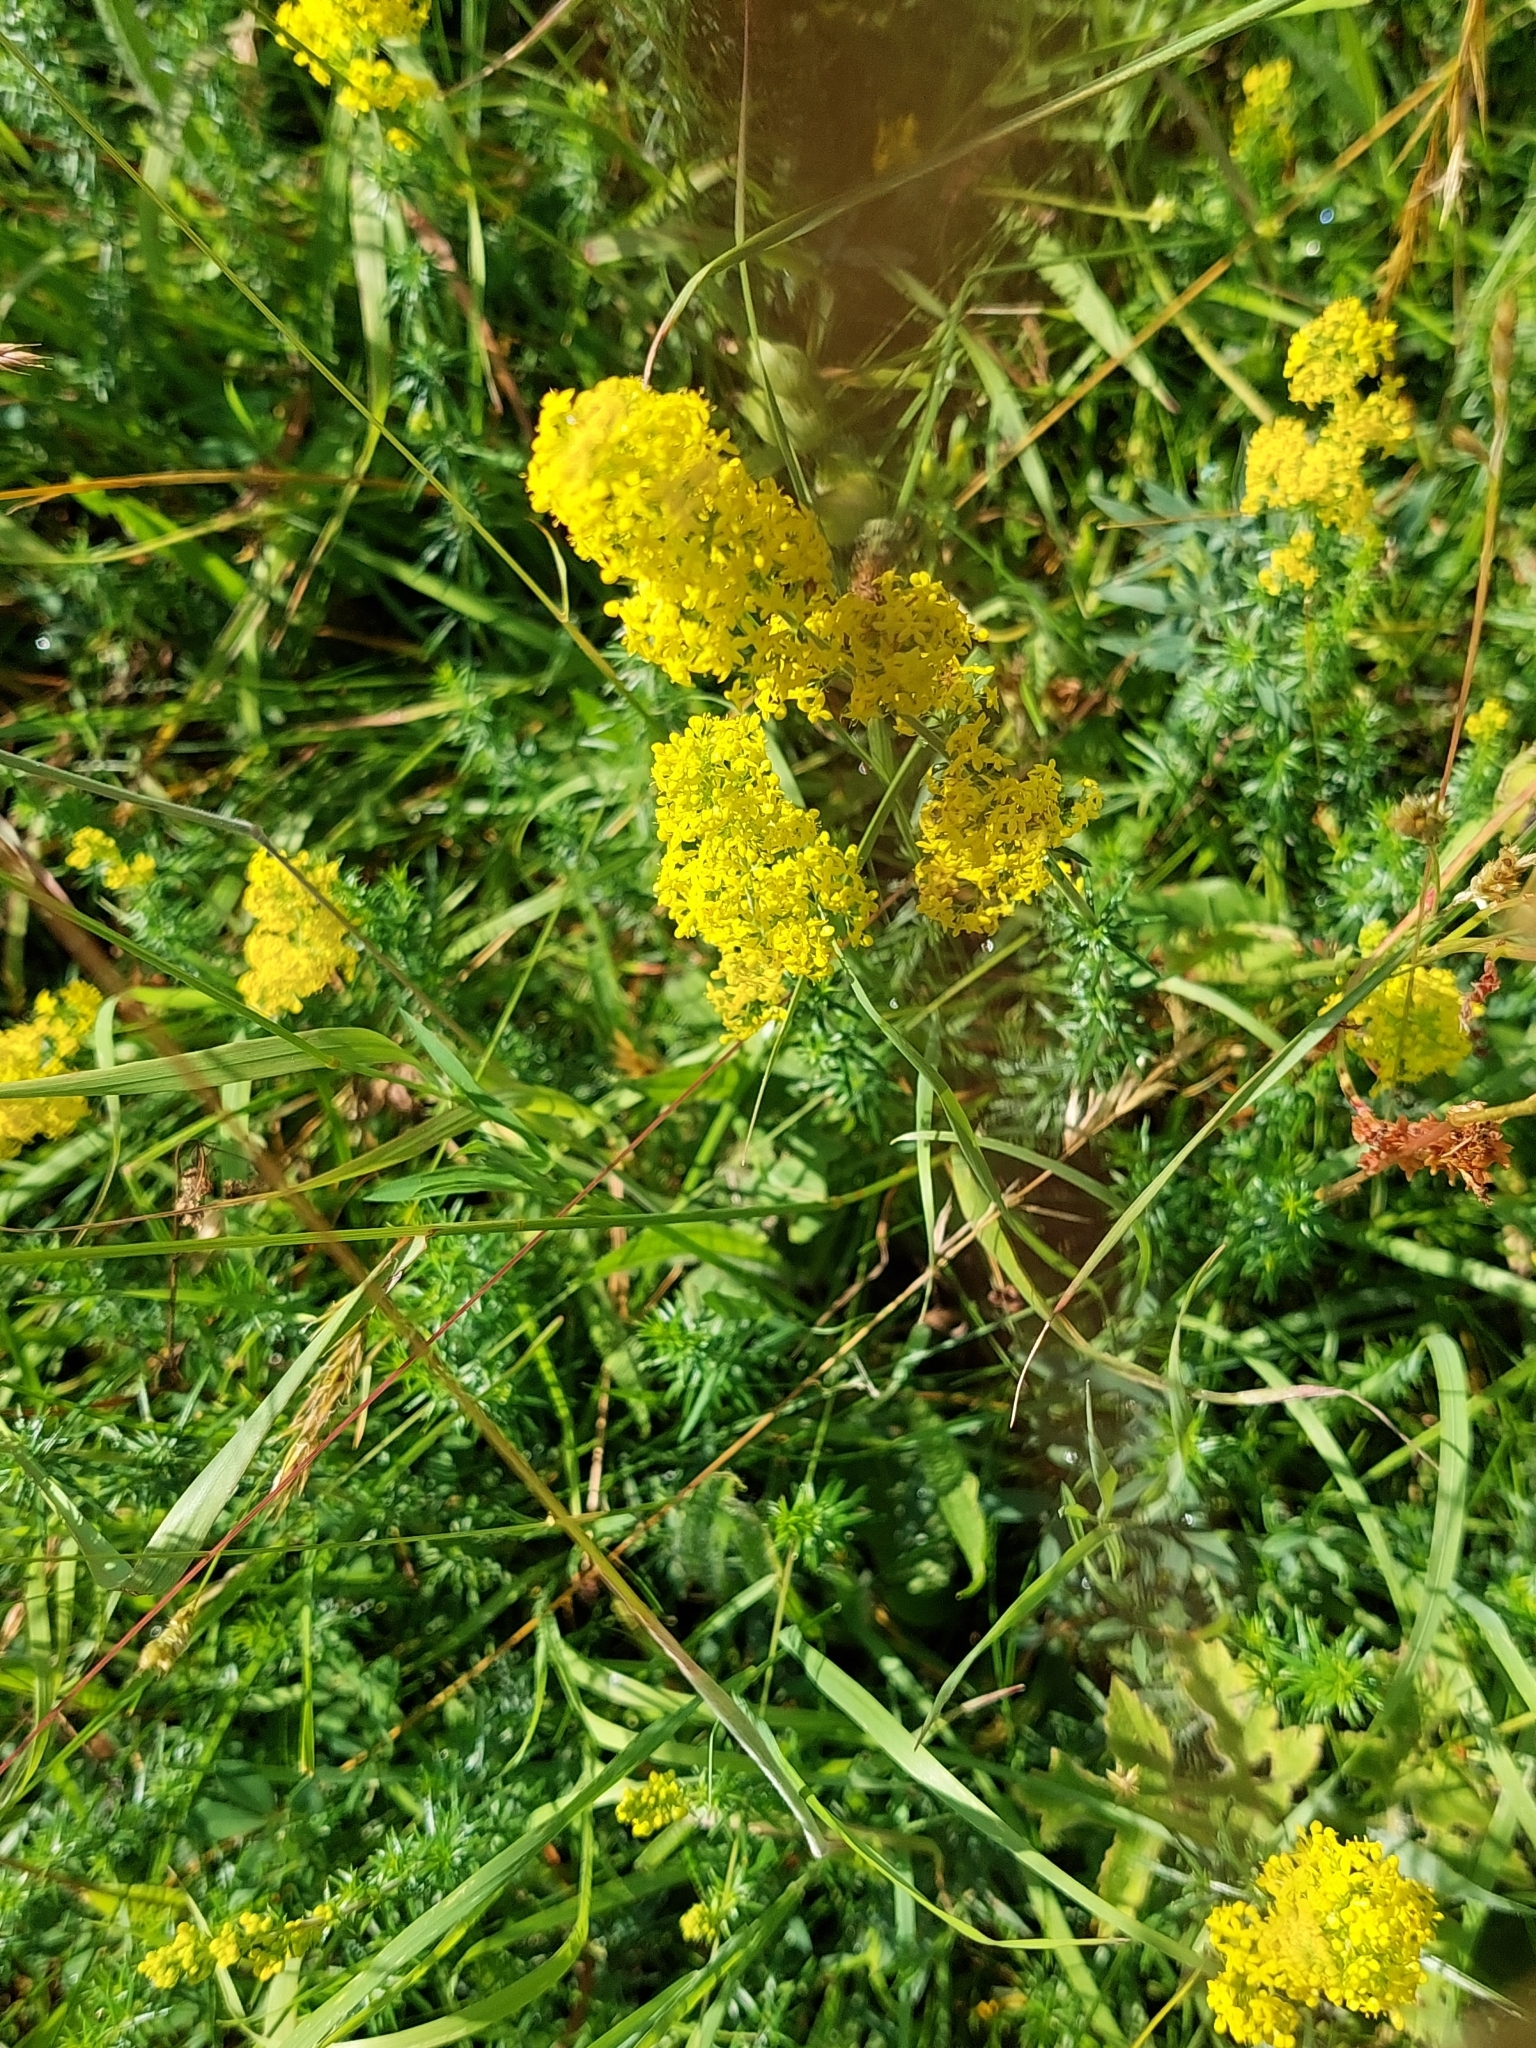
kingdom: Plantae
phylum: Tracheophyta
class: Magnoliopsida
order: Gentianales
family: Rubiaceae
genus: Galium
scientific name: Galium verum
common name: Lady's bedstraw
